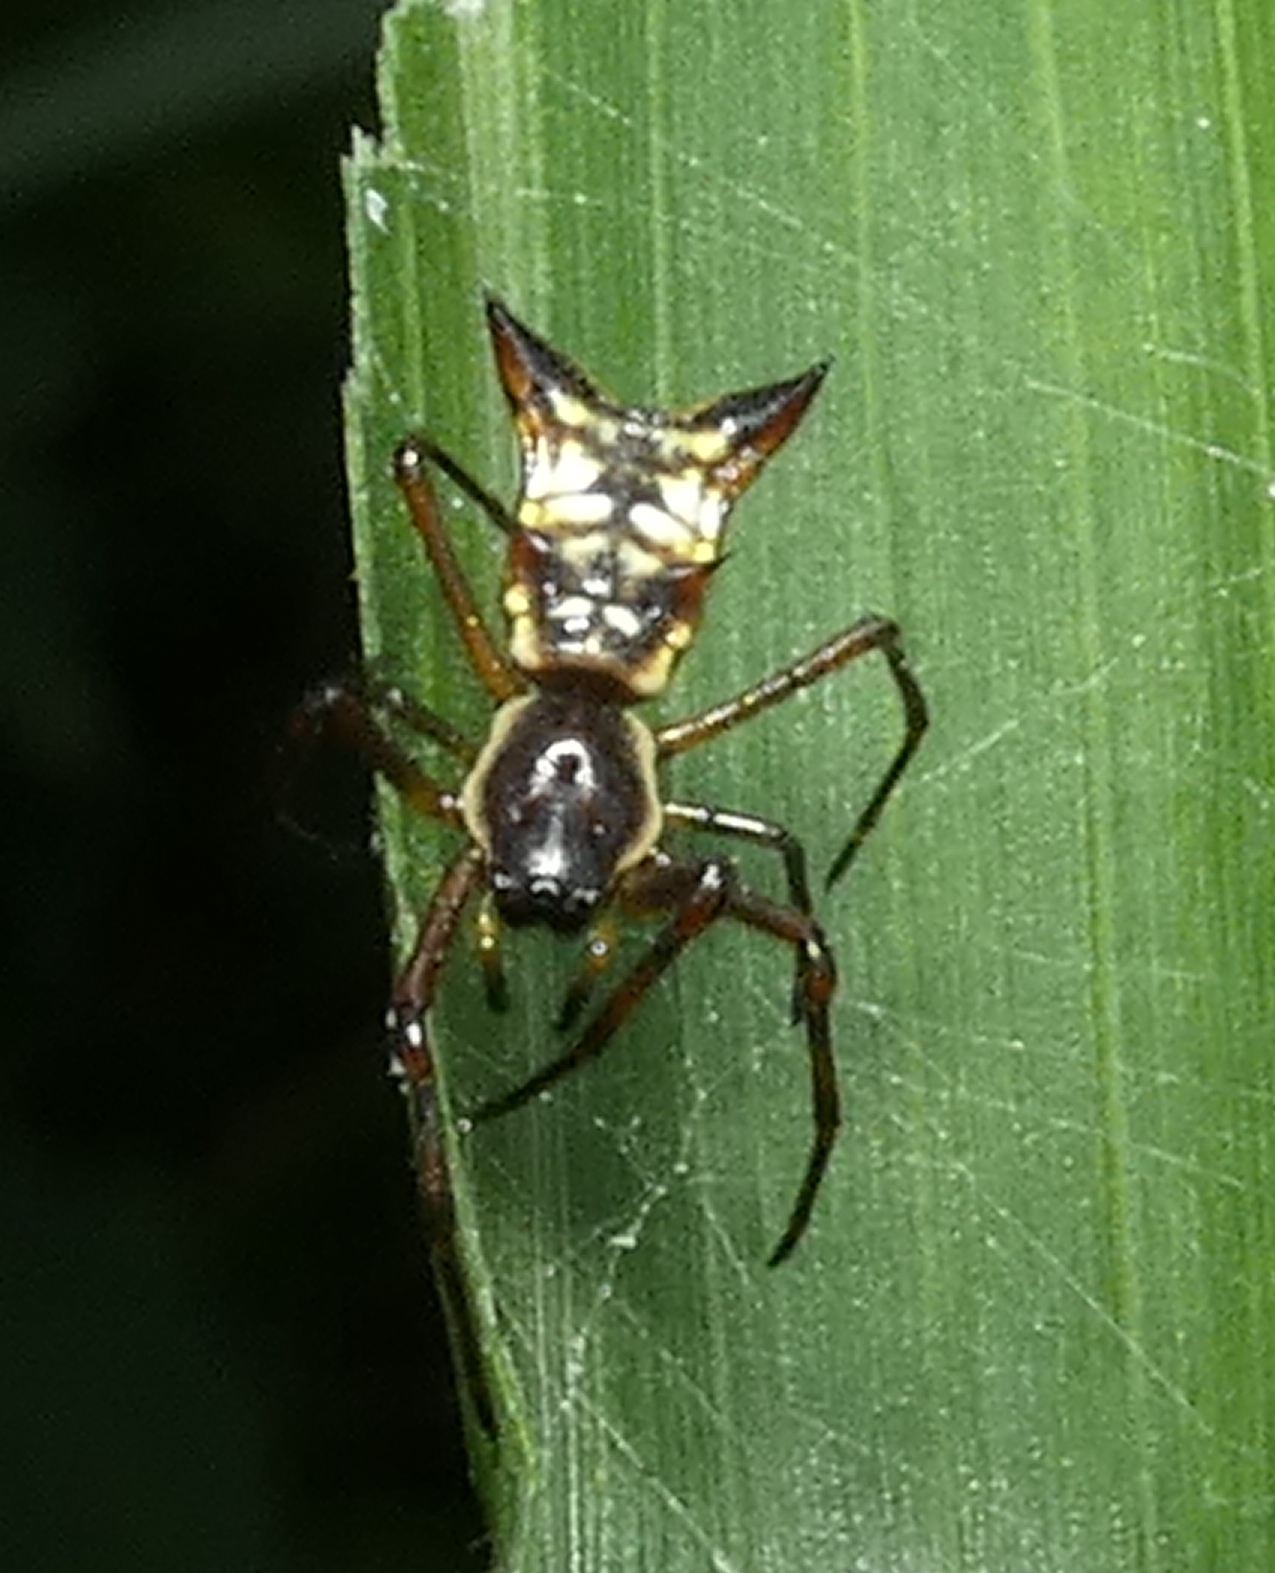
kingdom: Animalia
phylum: Arthropoda
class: Arachnida
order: Araneae
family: Araneidae
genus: Micrathena
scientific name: Micrathena fissispina
